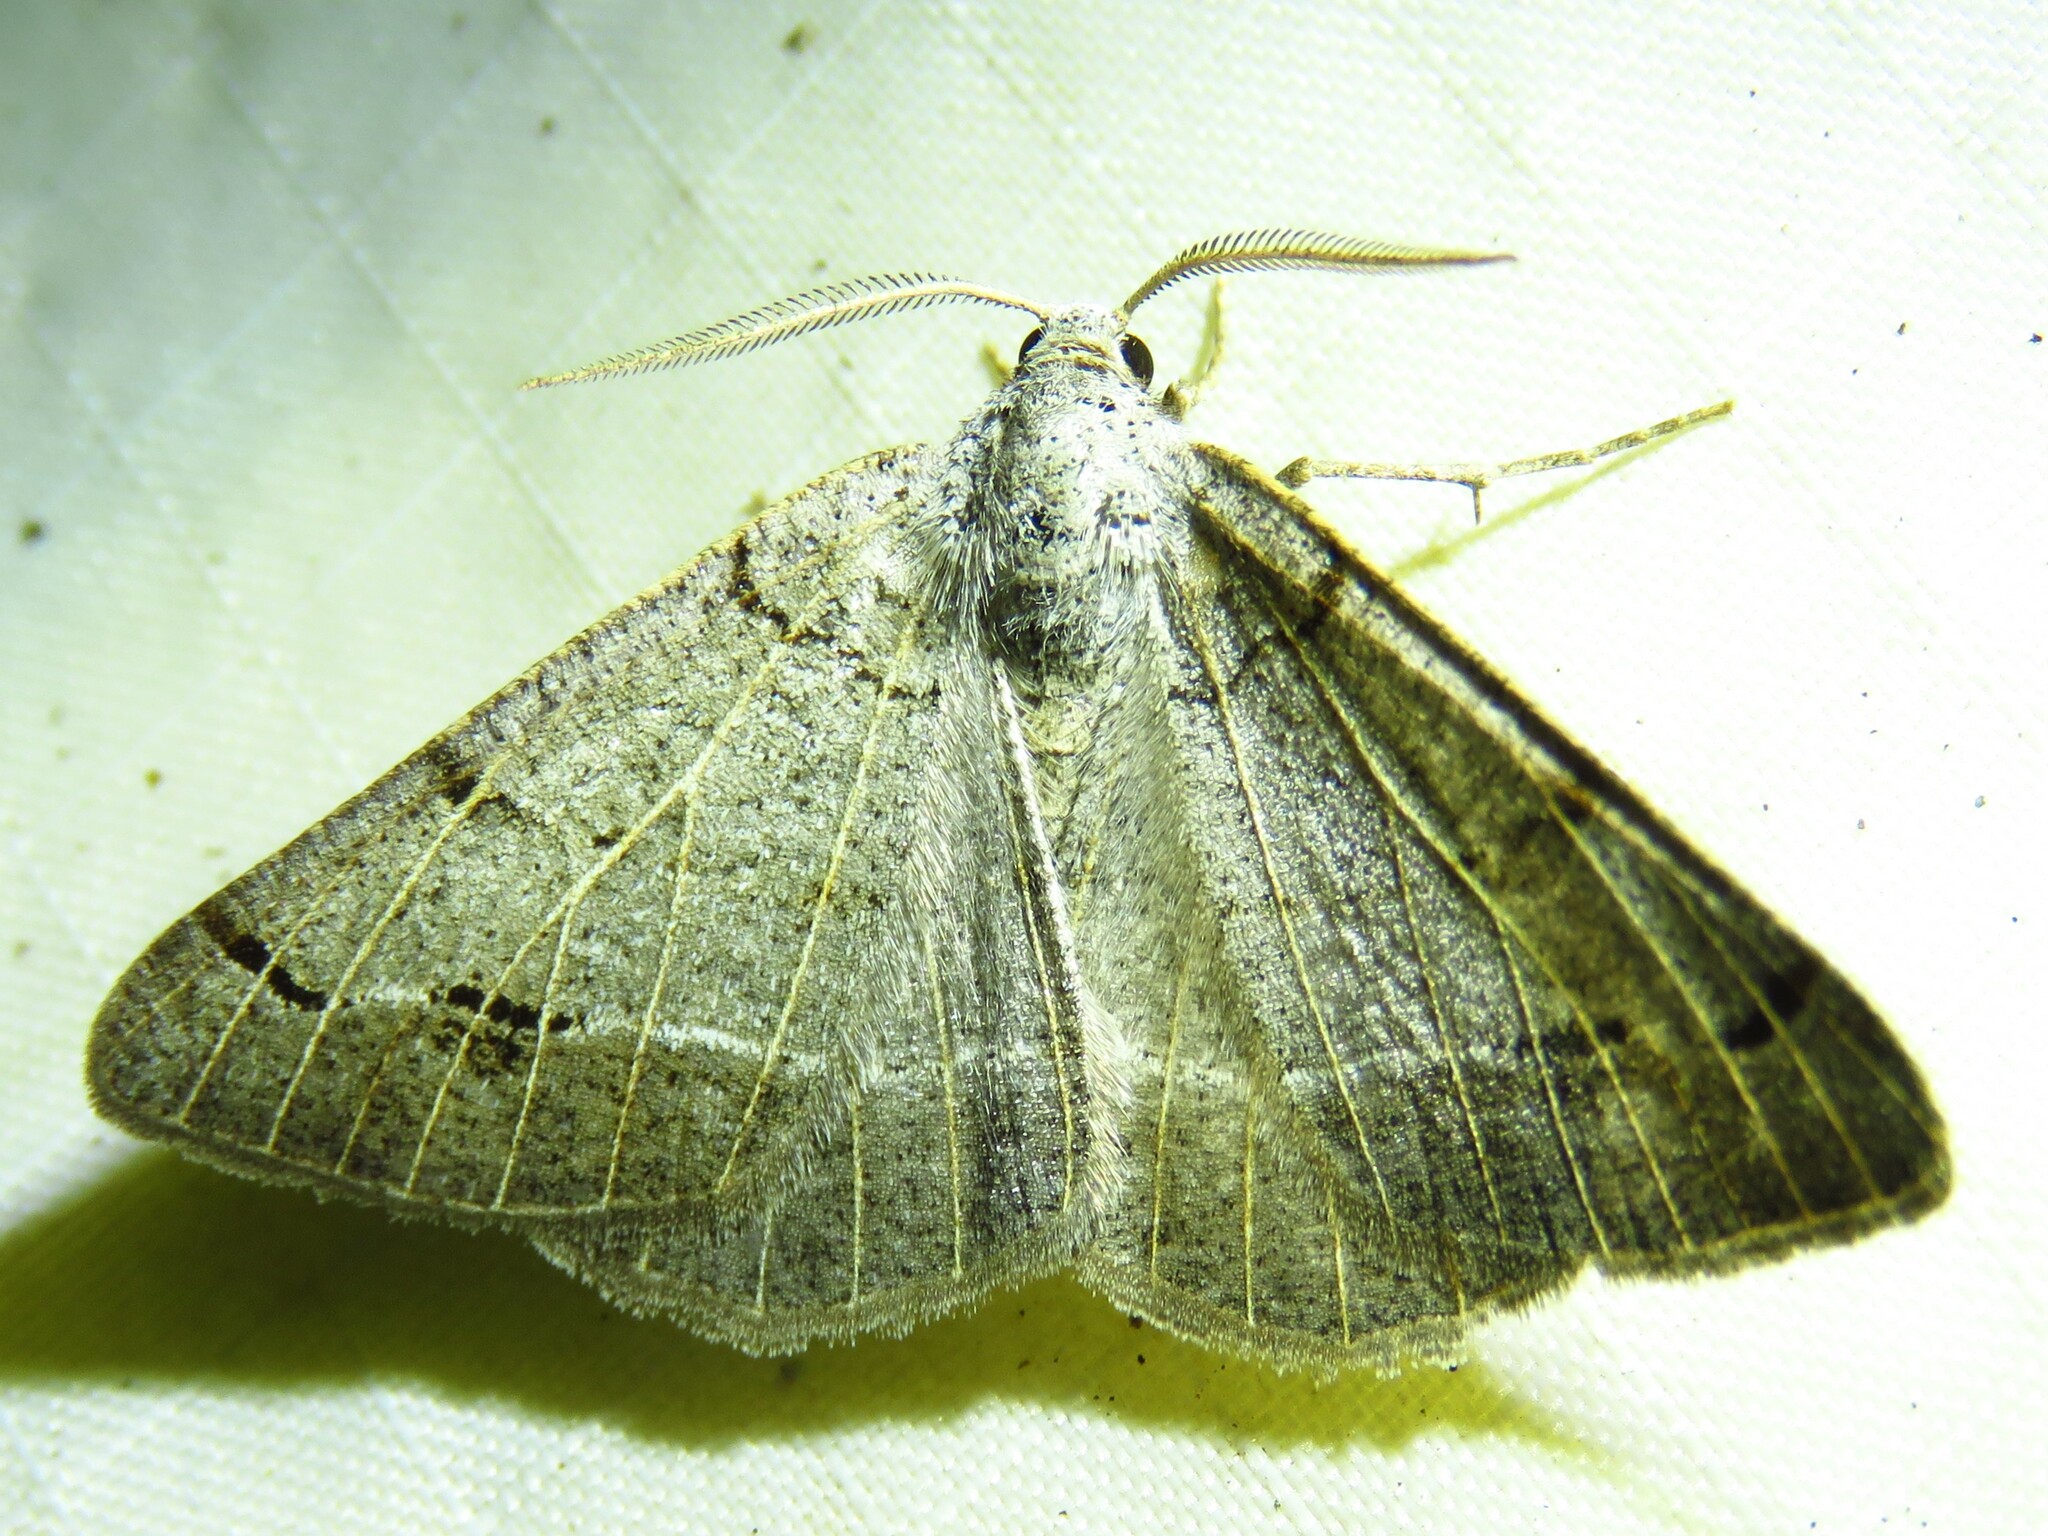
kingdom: Animalia
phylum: Arthropoda
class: Insecta
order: Lepidoptera
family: Geometridae
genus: Isturgia
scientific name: Isturgia dislocaria
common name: Pale-viened enconista
